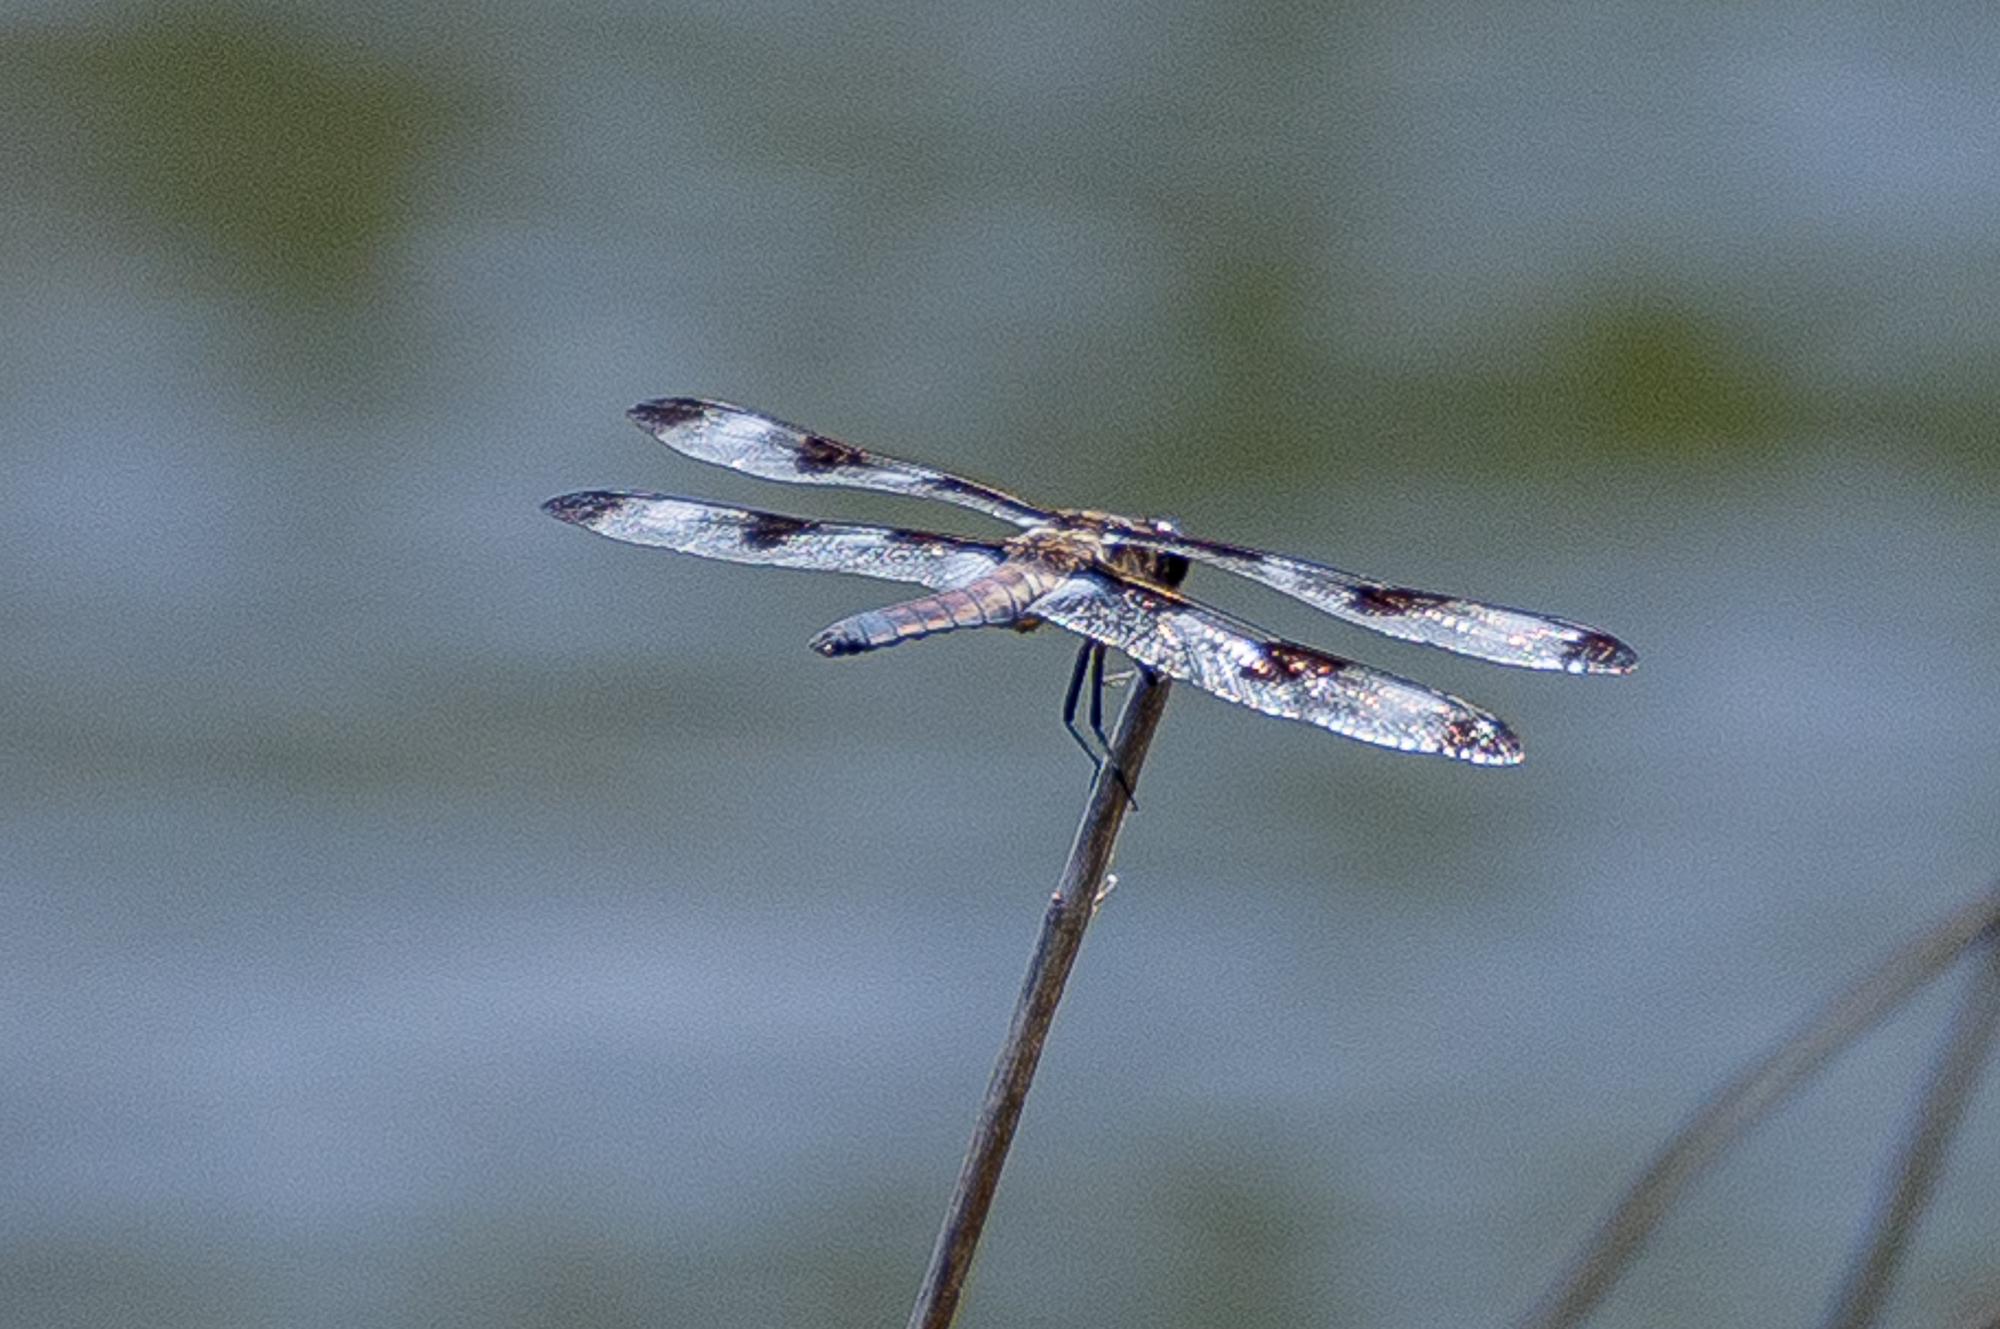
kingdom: Animalia
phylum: Arthropoda
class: Insecta
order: Odonata
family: Libellulidae
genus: Libellula
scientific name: Libellula pulchella
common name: Twelve-spotted skimmer
